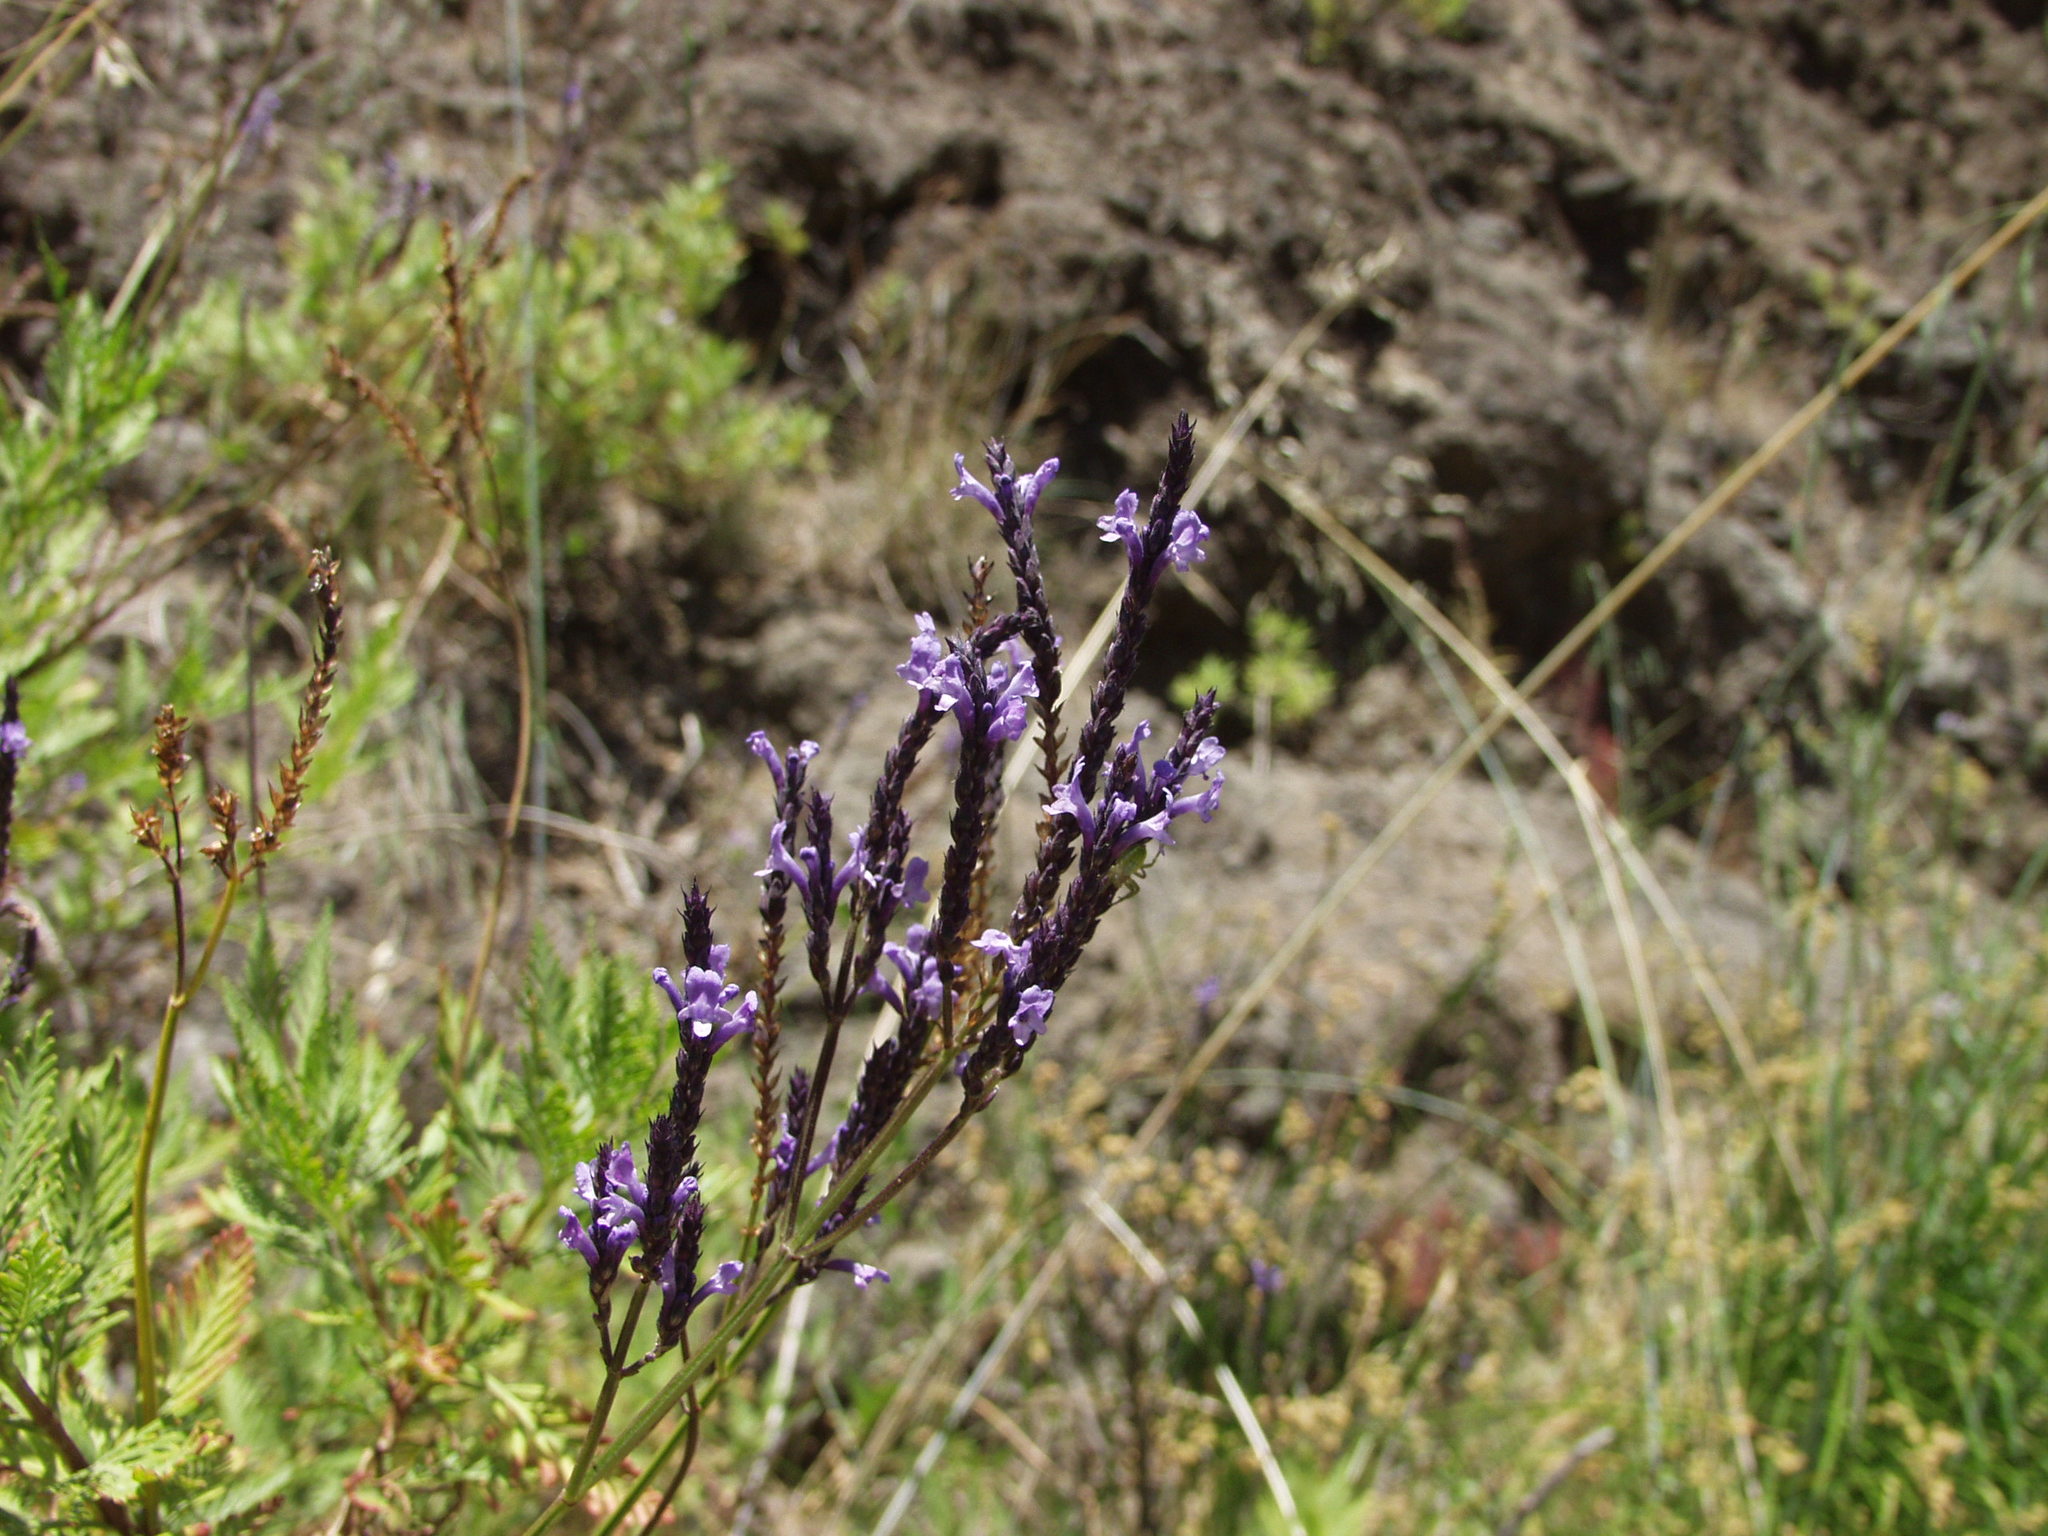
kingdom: Plantae
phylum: Tracheophyta
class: Magnoliopsida
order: Lamiales
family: Lamiaceae
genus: Lavandula
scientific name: Lavandula canariensis
